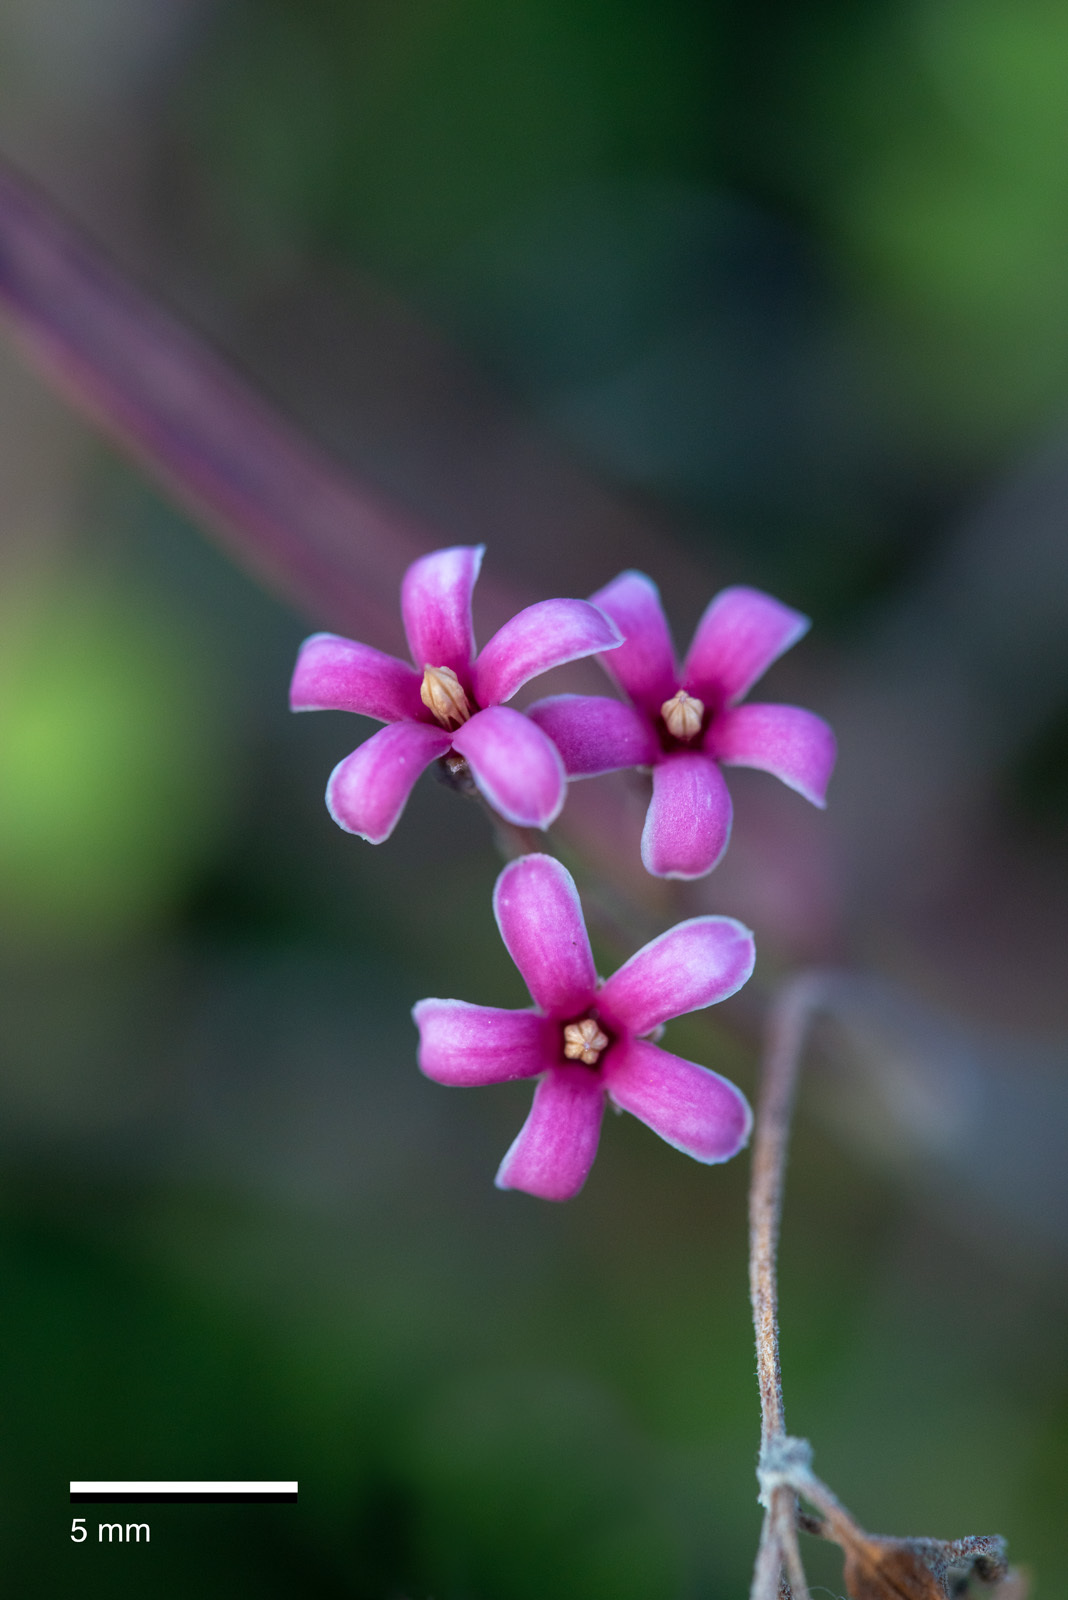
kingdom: Plantae
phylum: Tracheophyta
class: Magnoliopsida
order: Gentianales
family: Apocynaceae
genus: Parsonsia
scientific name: Parsonsia capsularis
